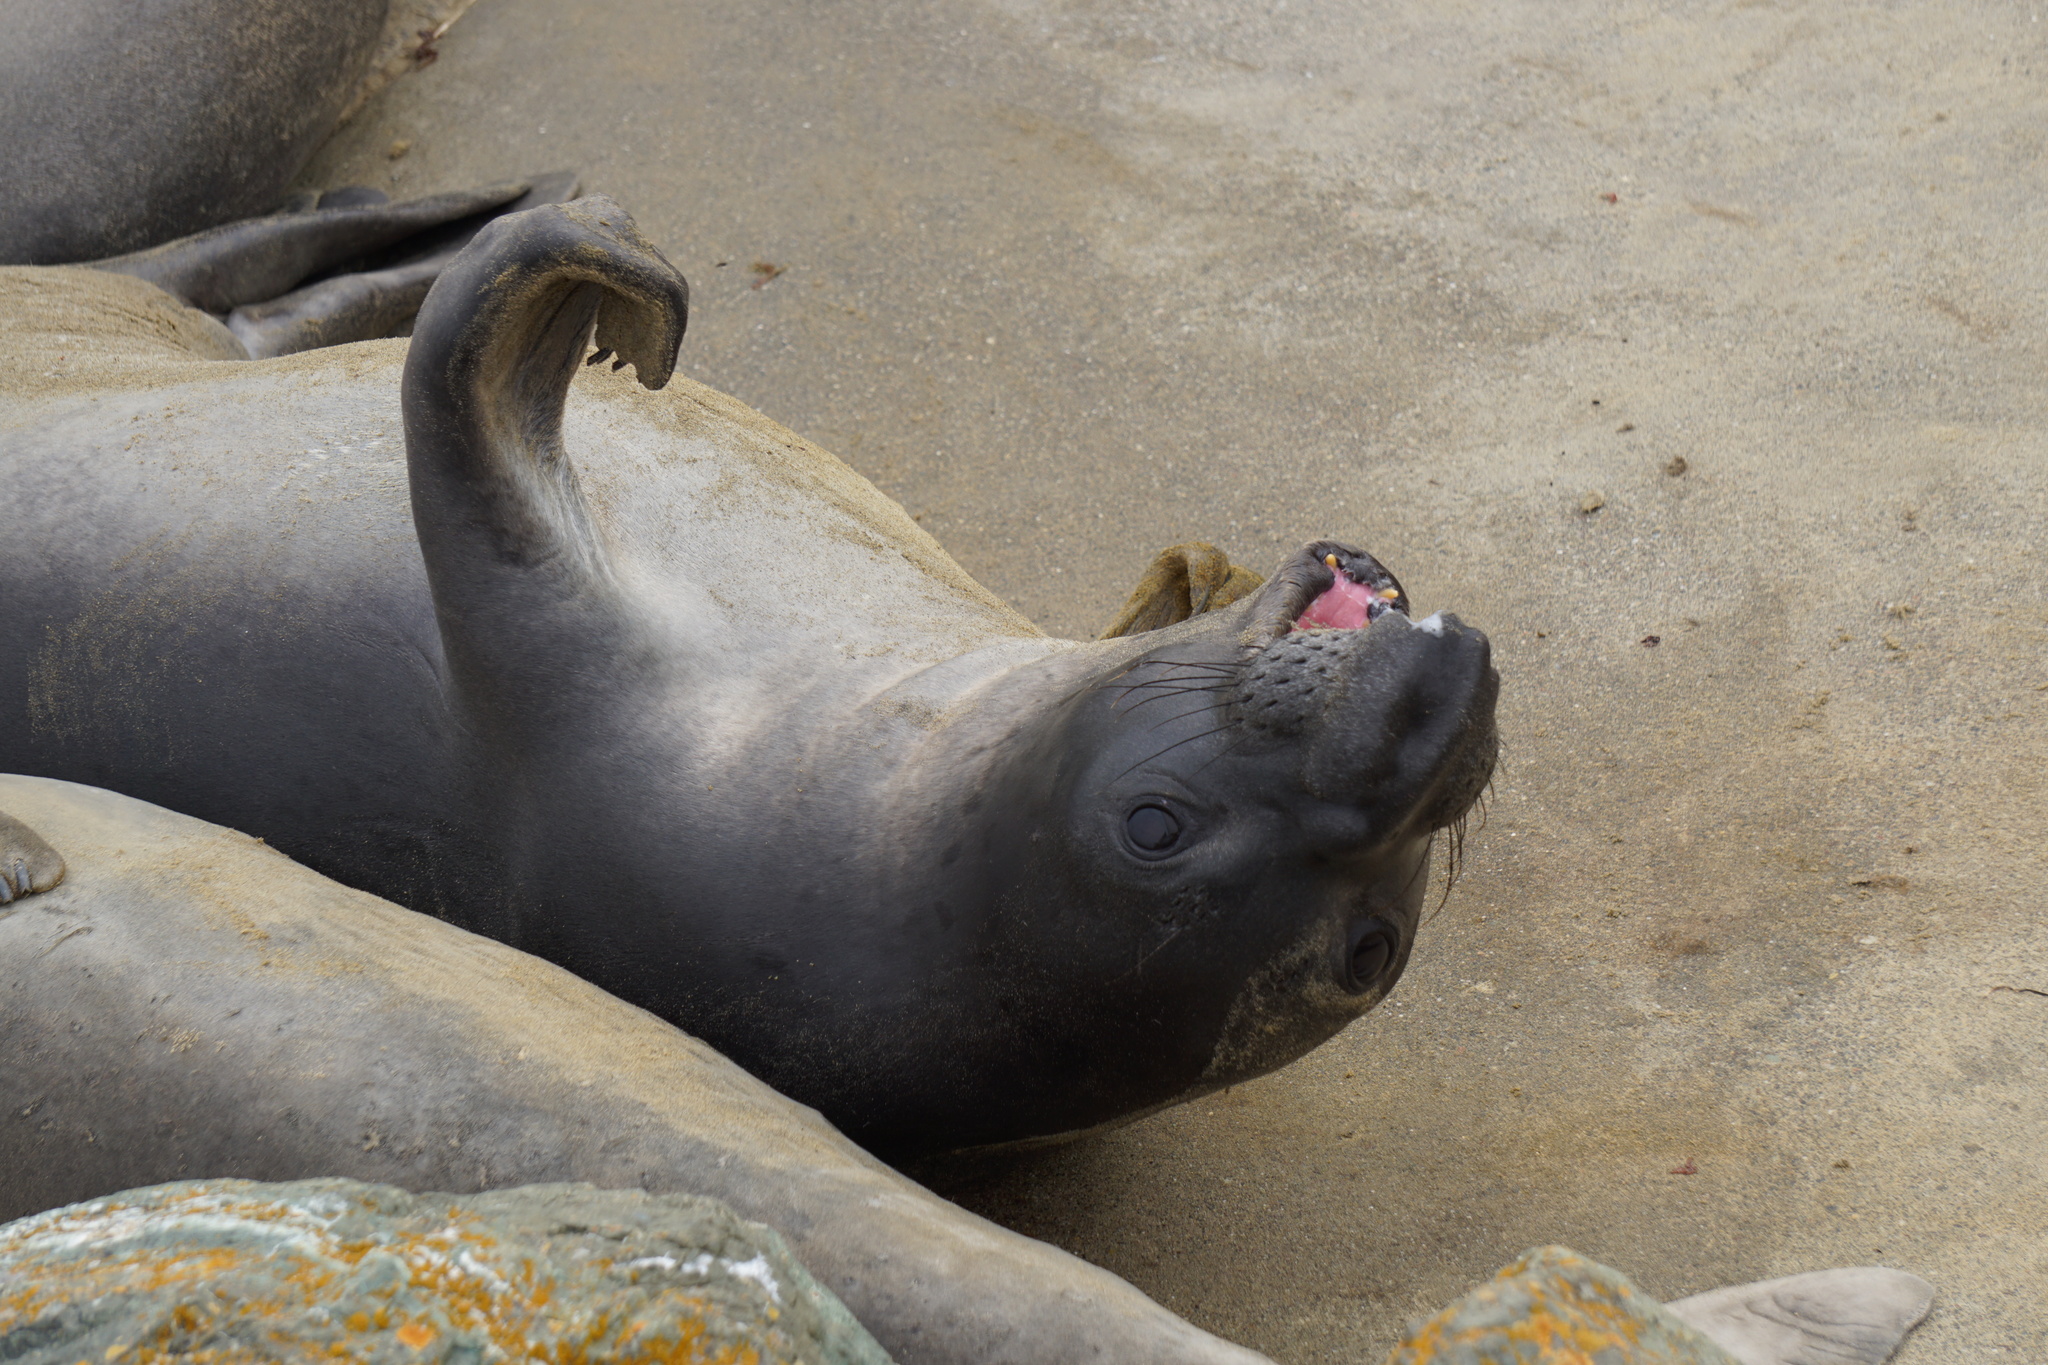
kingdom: Animalia
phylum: Chordata
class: Mammalia
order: Carnivora
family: Phocidae
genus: Mirounga
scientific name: Mirounga angustirostris
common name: Northern elephant seal
